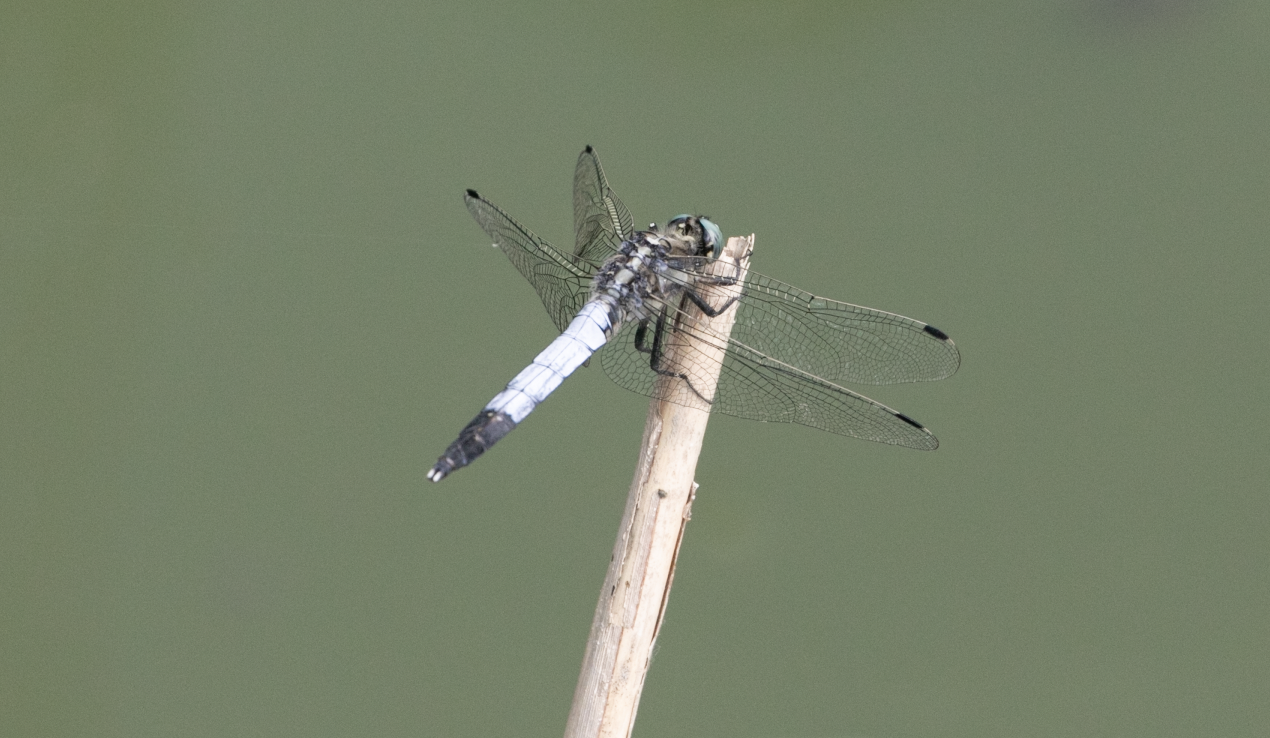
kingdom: Animalia
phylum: Arthropoda
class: Insecta
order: Odonata
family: Libellulidae
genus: Orthetrum
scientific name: Orthetrum albistylum
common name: White-tailed skimmer
